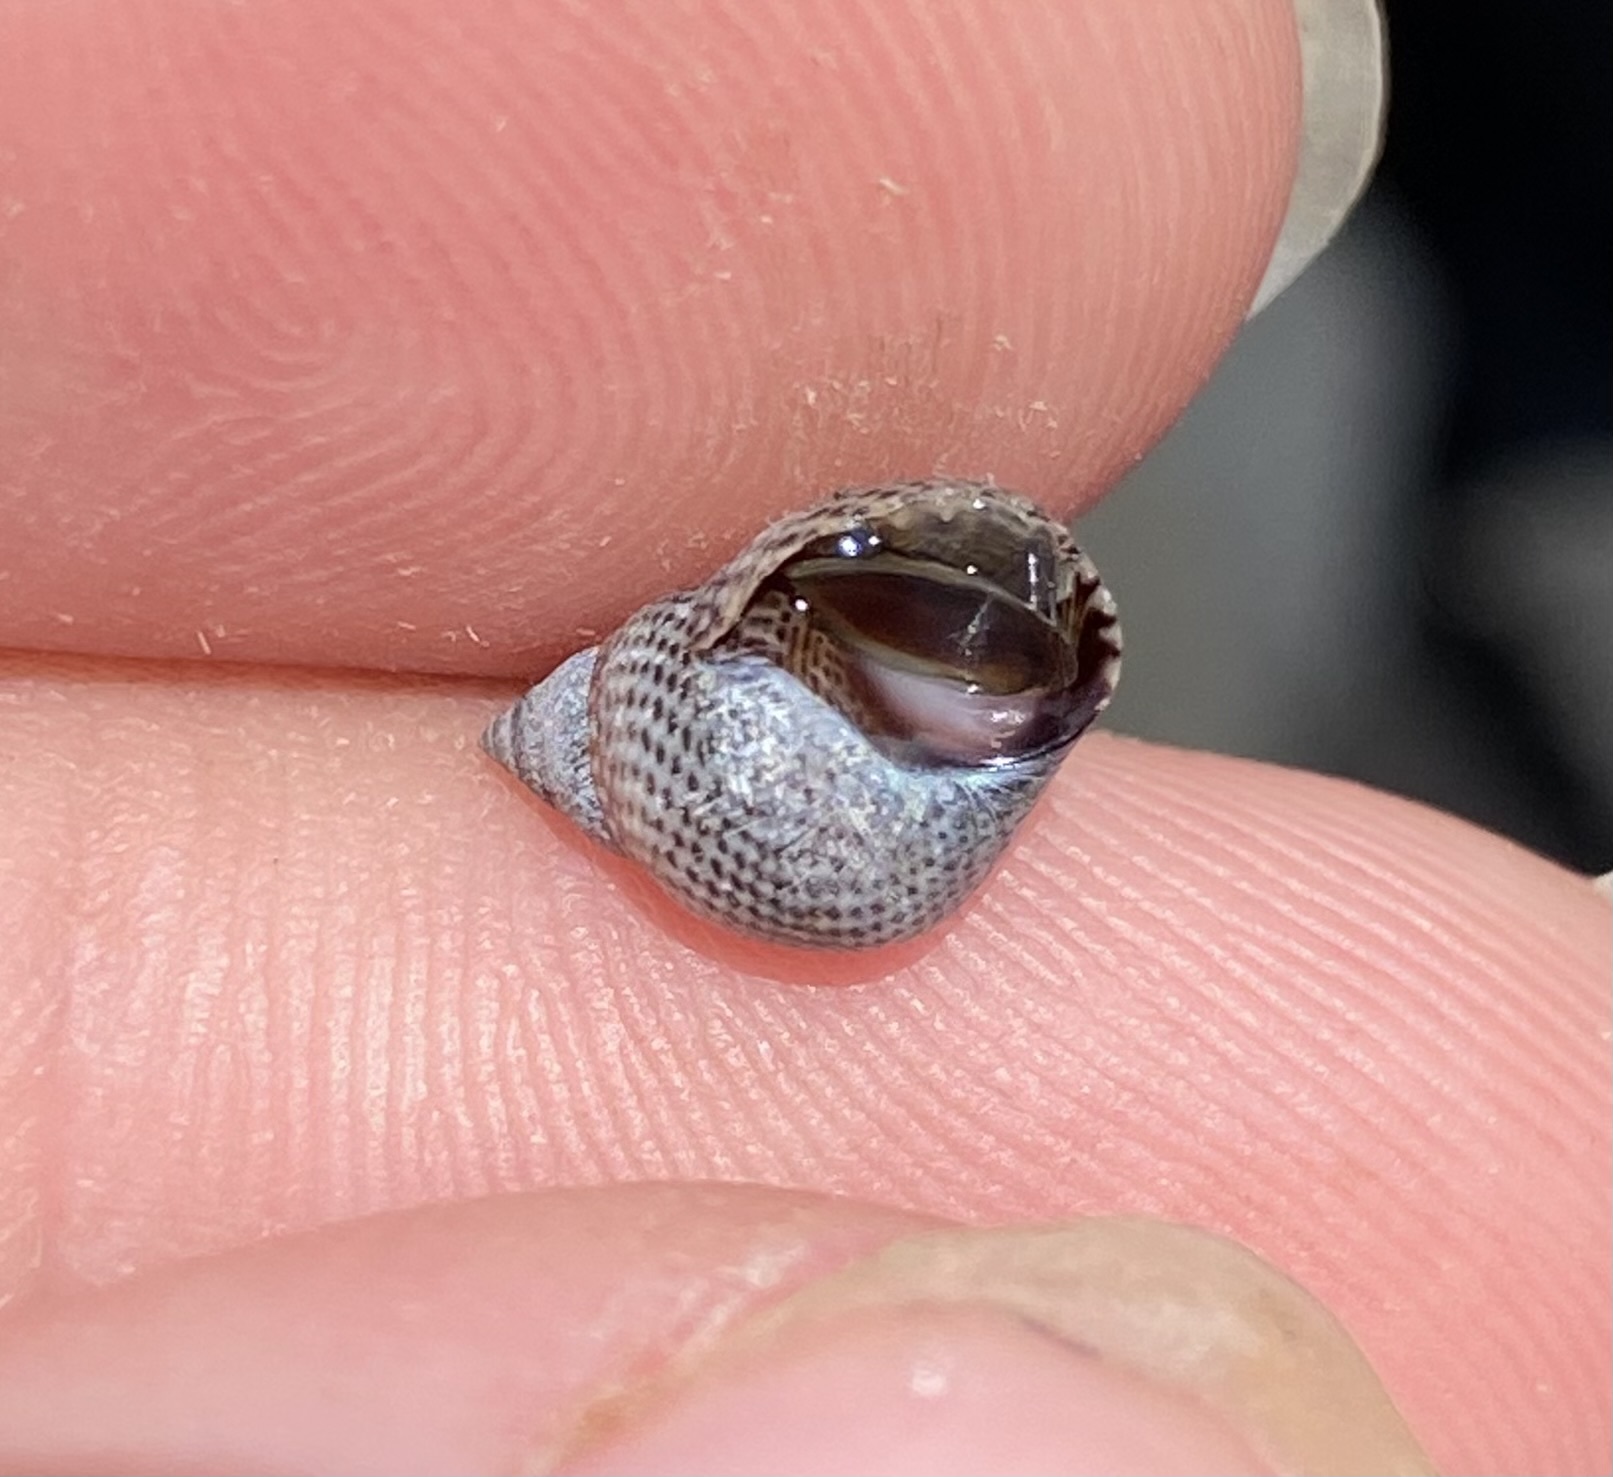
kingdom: Animalia
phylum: Mollusca
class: Gastropoda
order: Littorinimorpha
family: Littorinidae
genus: Littoraria
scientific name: Littoraria pintado
